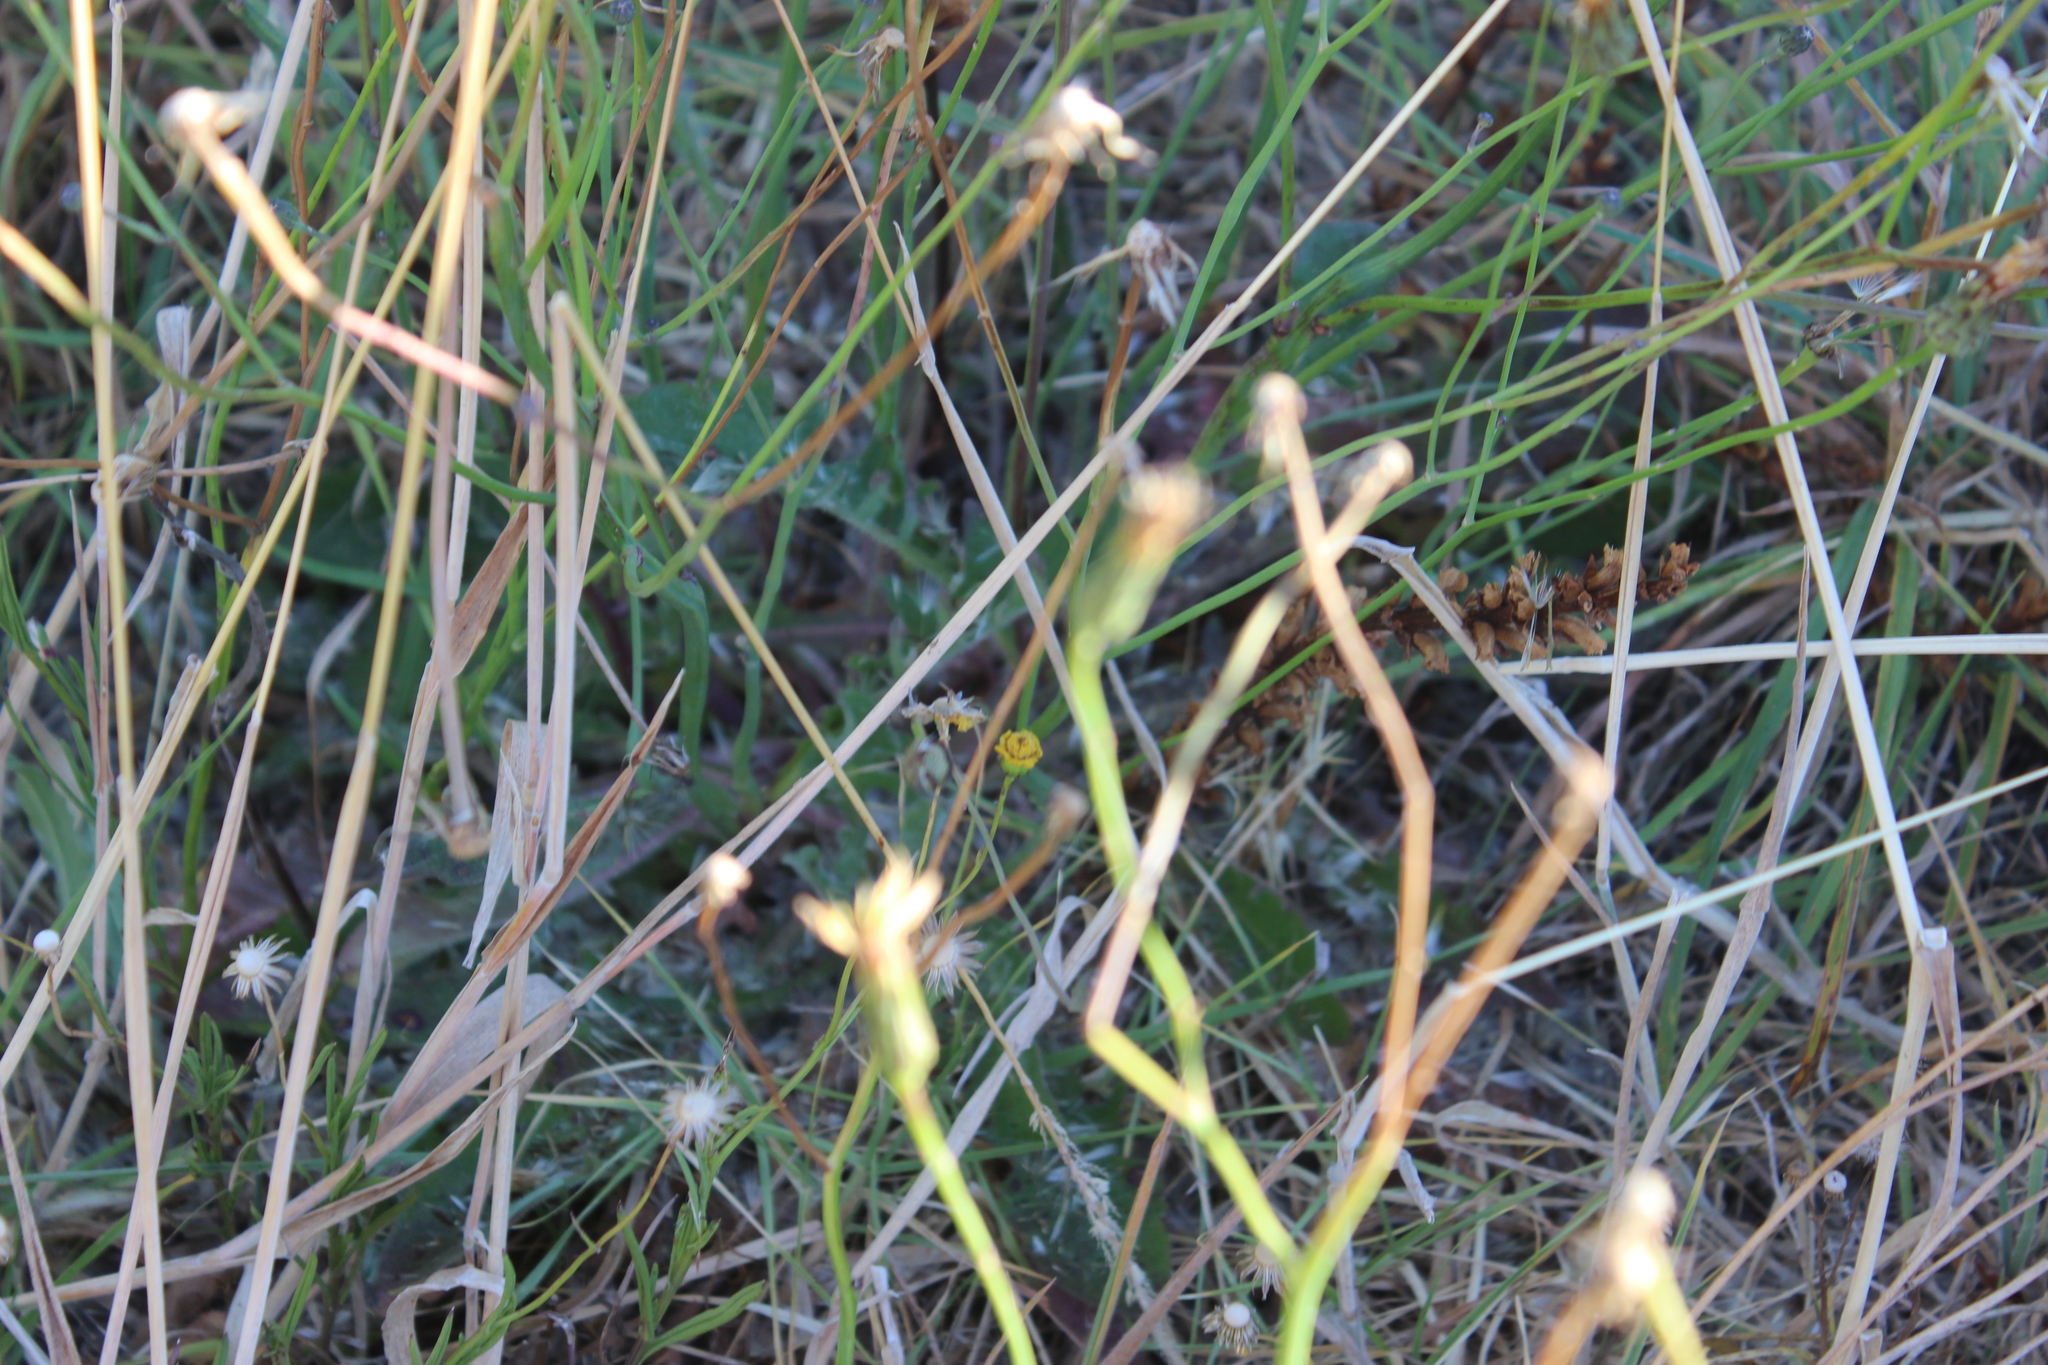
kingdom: Plantae
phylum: Tracheophyta
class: Magnoliopsida
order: Lamiales
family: Orobanchaceae
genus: Orobanche
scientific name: Orobanche minor
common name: Common broomrape
